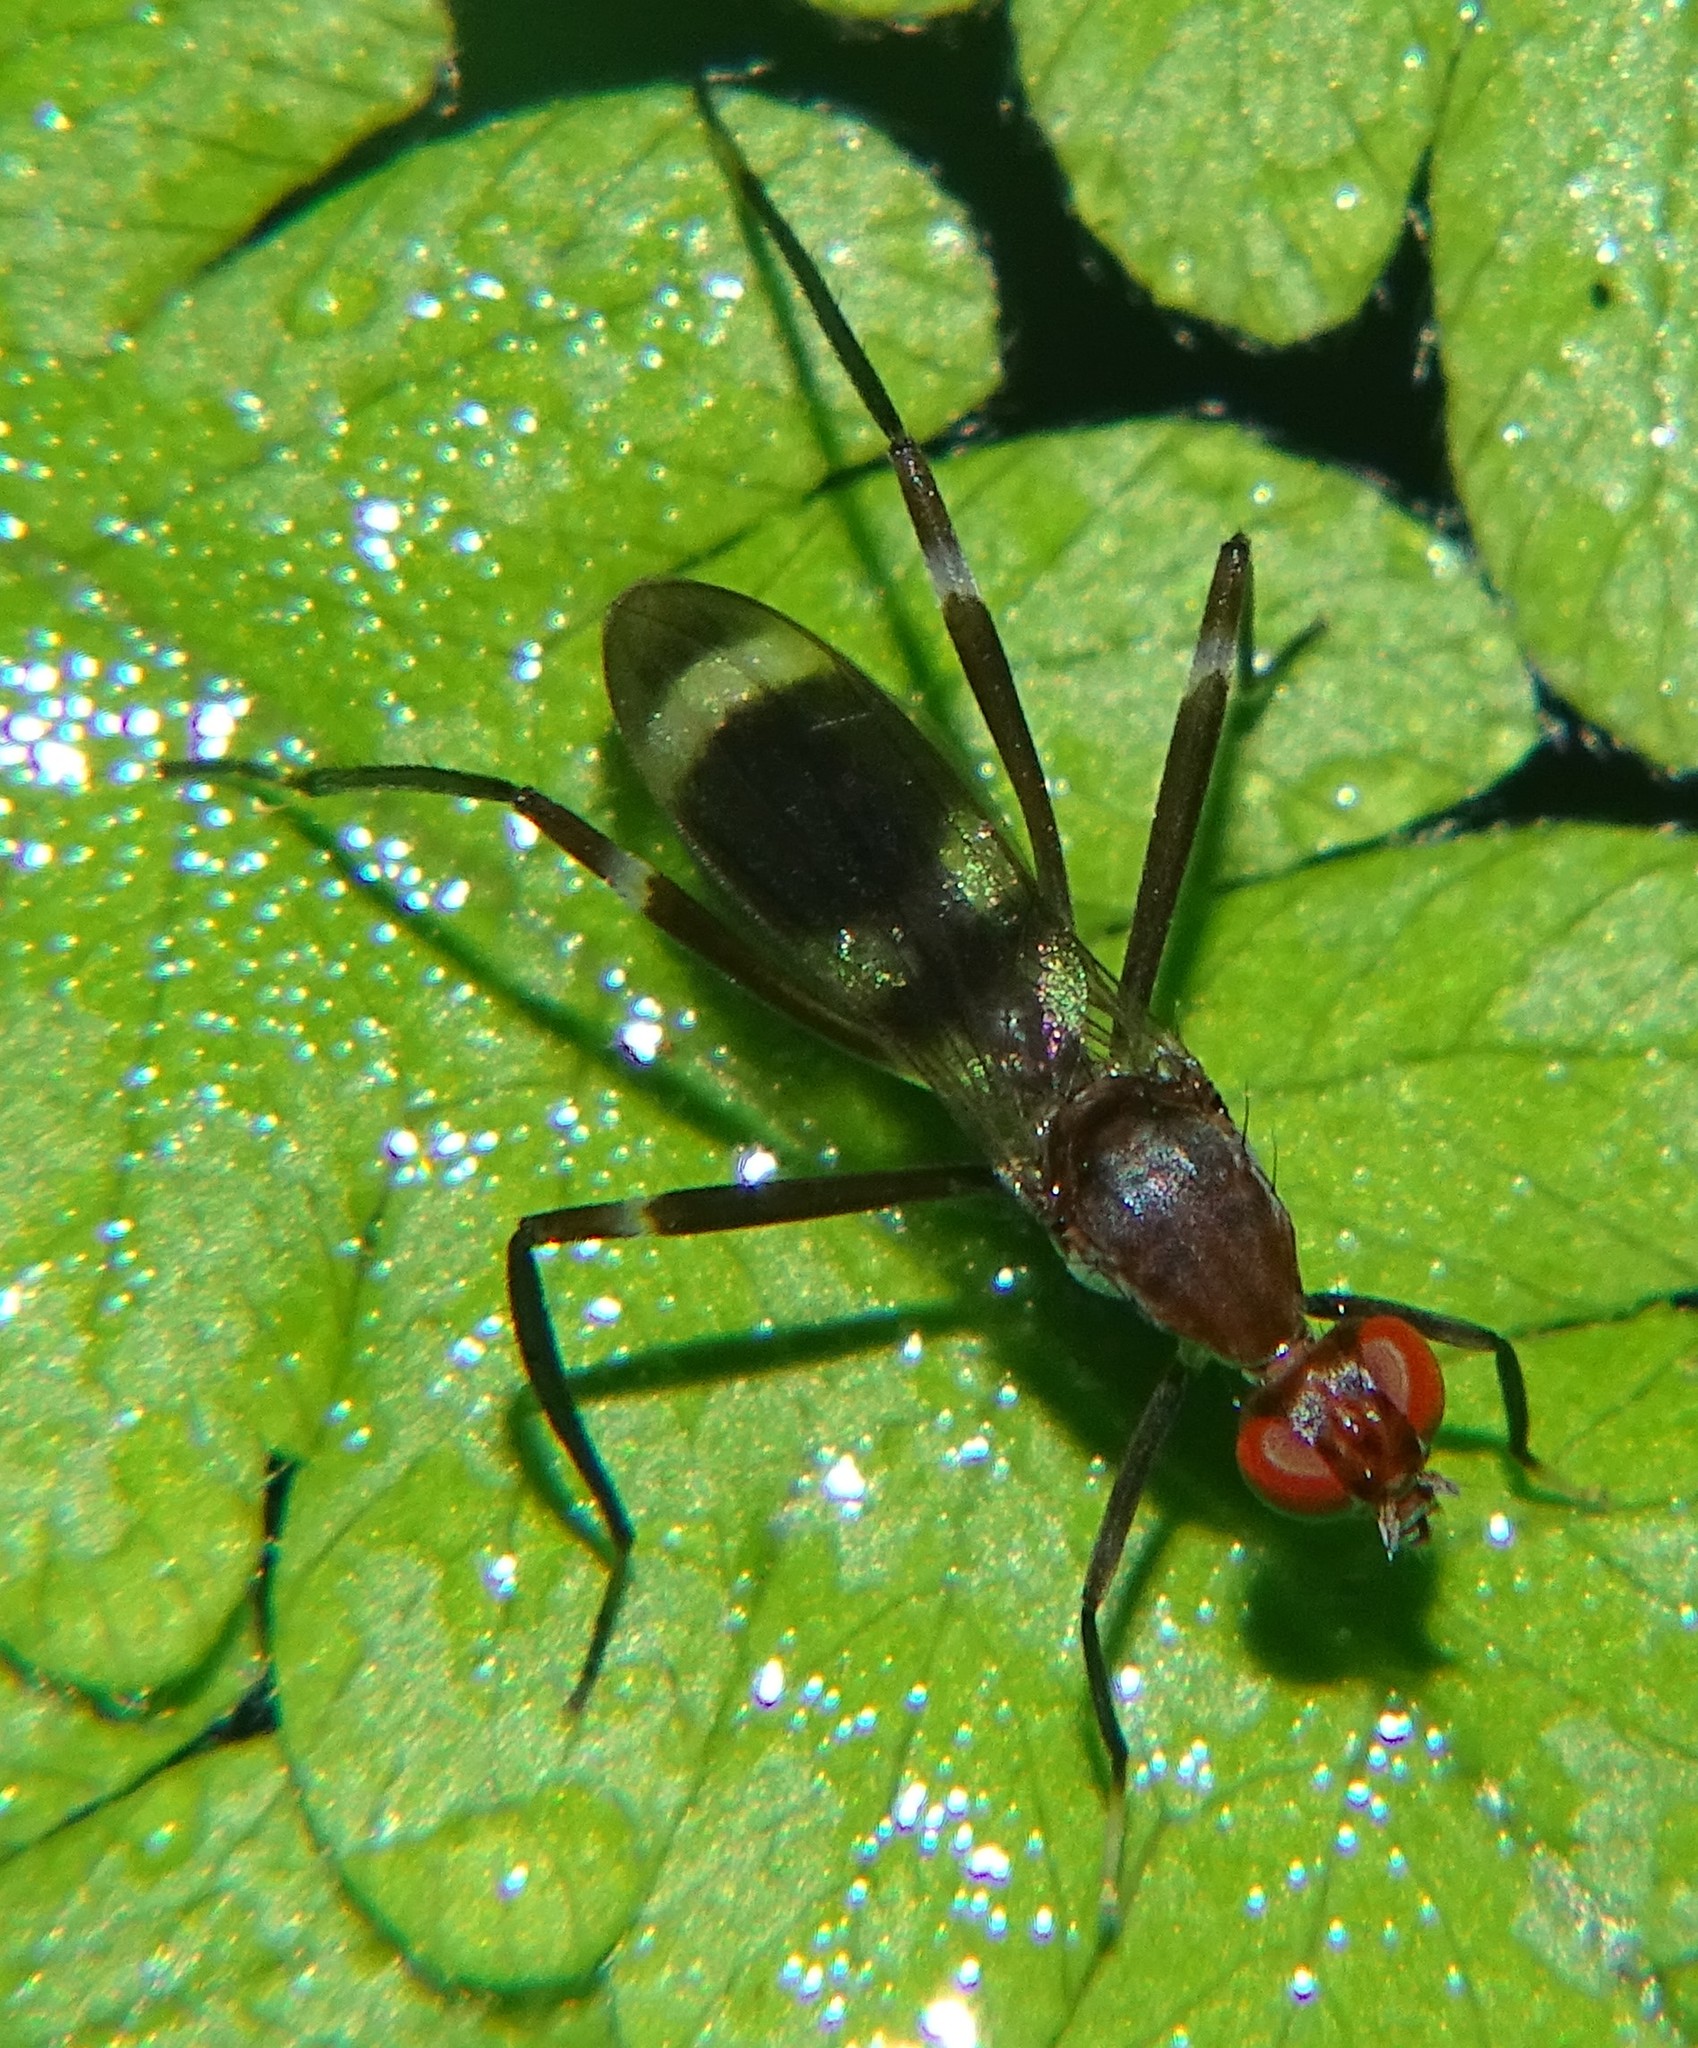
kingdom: Animalia
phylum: Arthropoda
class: Insecta
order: Diptera
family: Micropezidae
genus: Paragrallomyia
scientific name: Paragrallomyia
